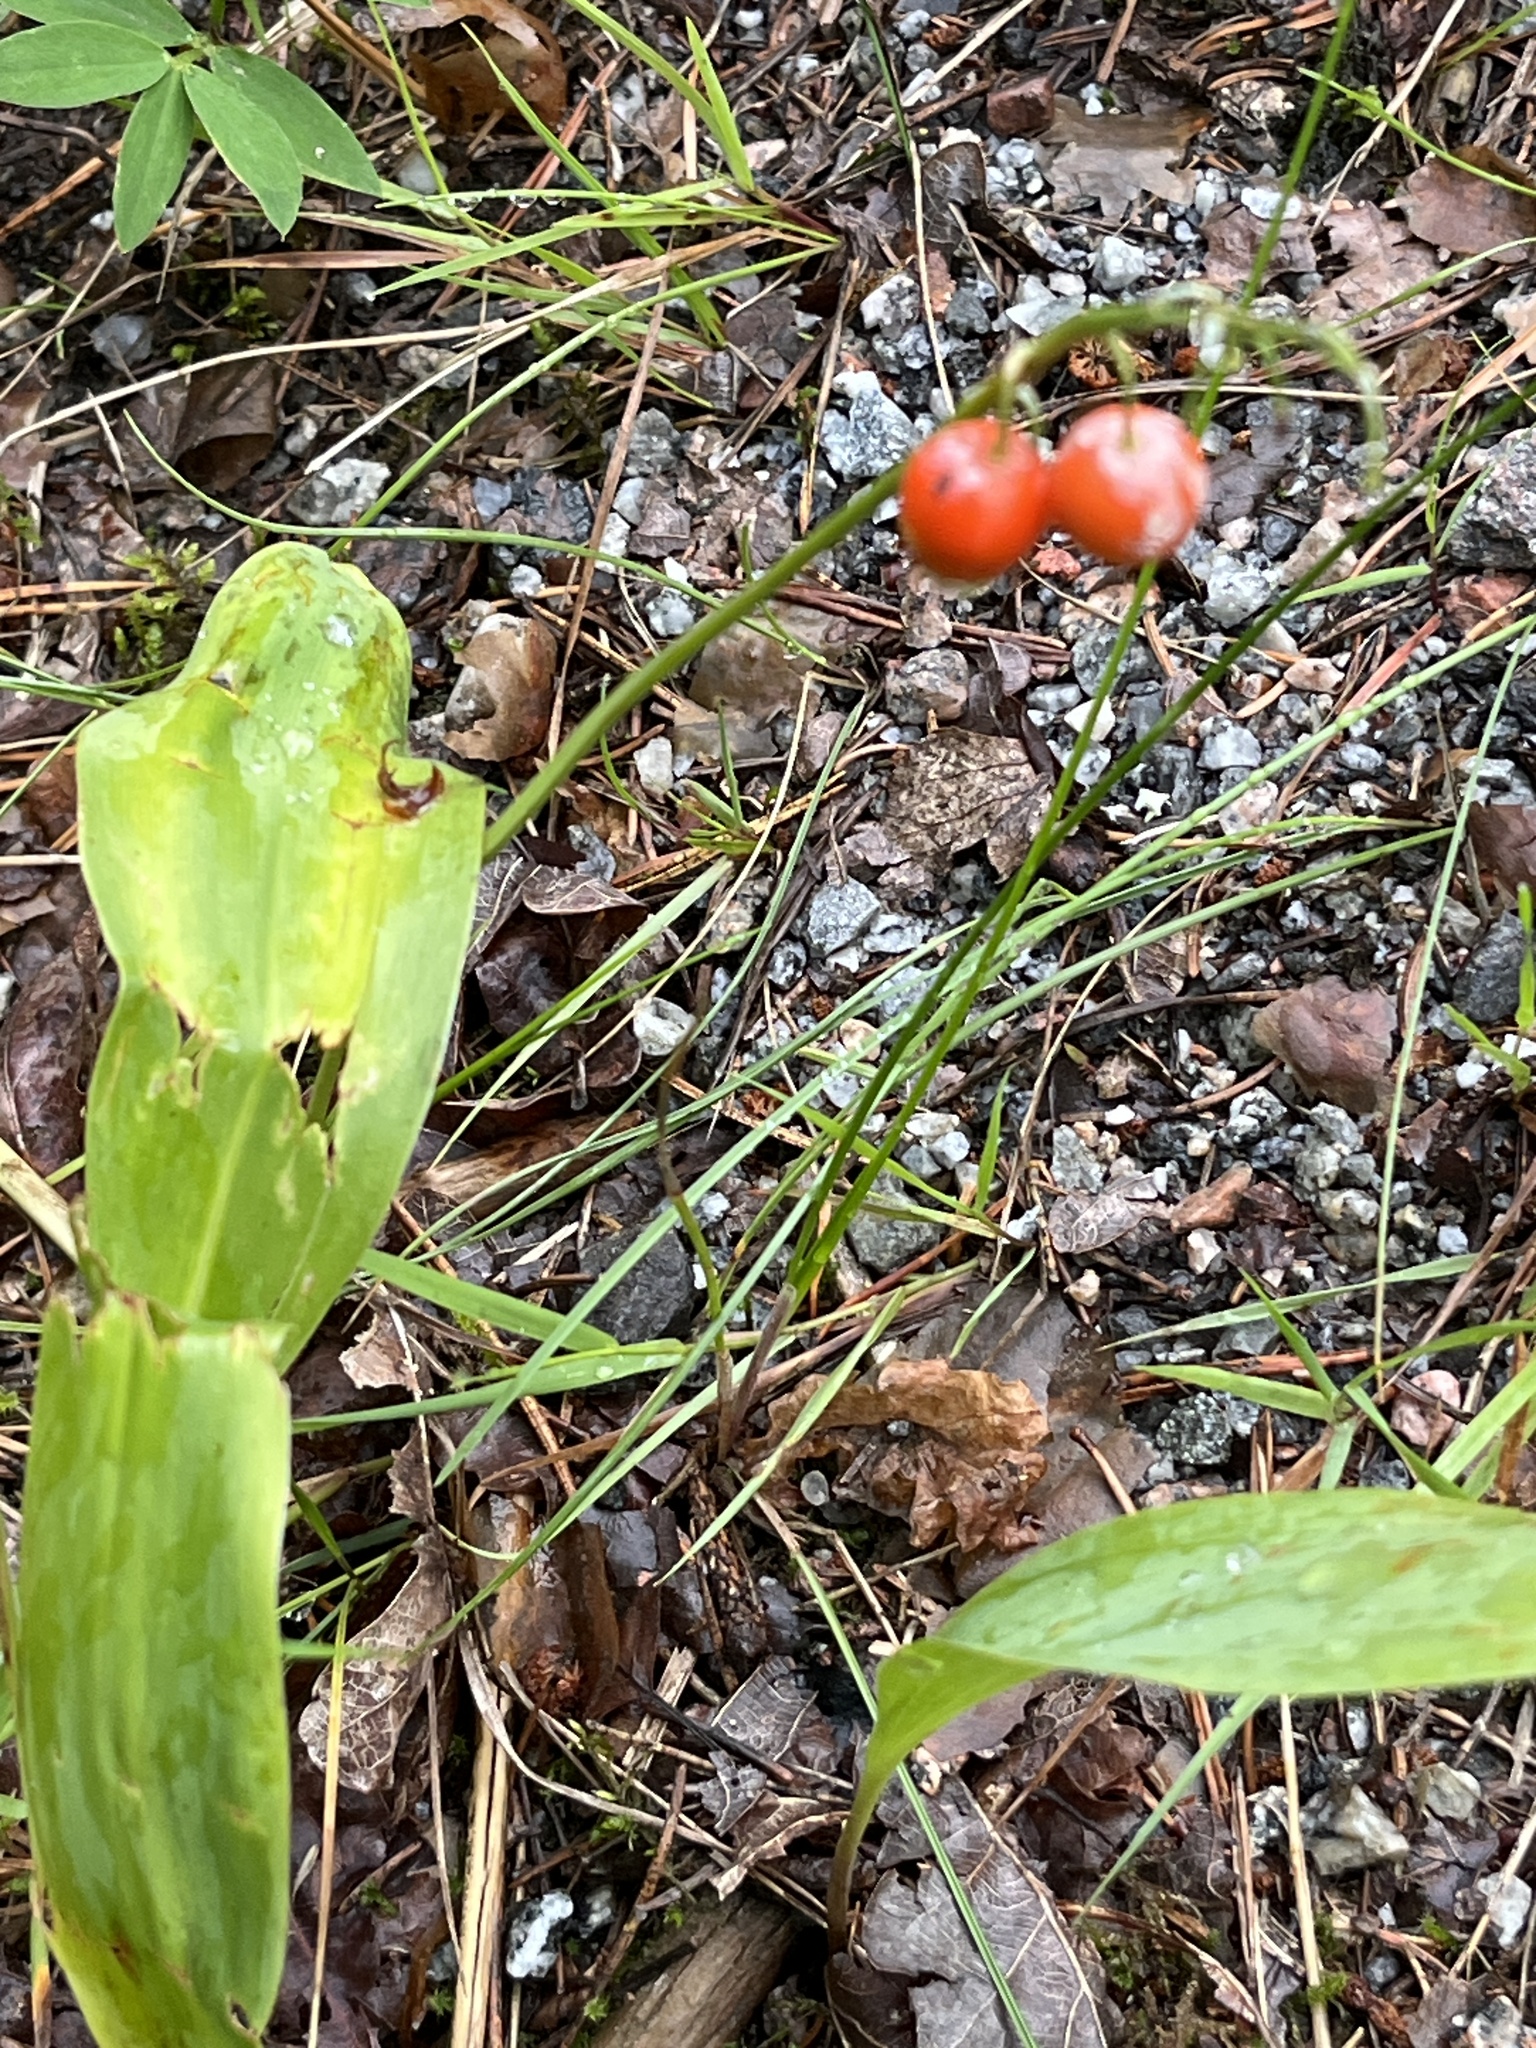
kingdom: Plantae
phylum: Tracheophyta
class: Liliopsida
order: Asparagales
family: Asparagaceae
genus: Convallaria
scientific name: Convallaria majalis
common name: Lily-of-the-valley
